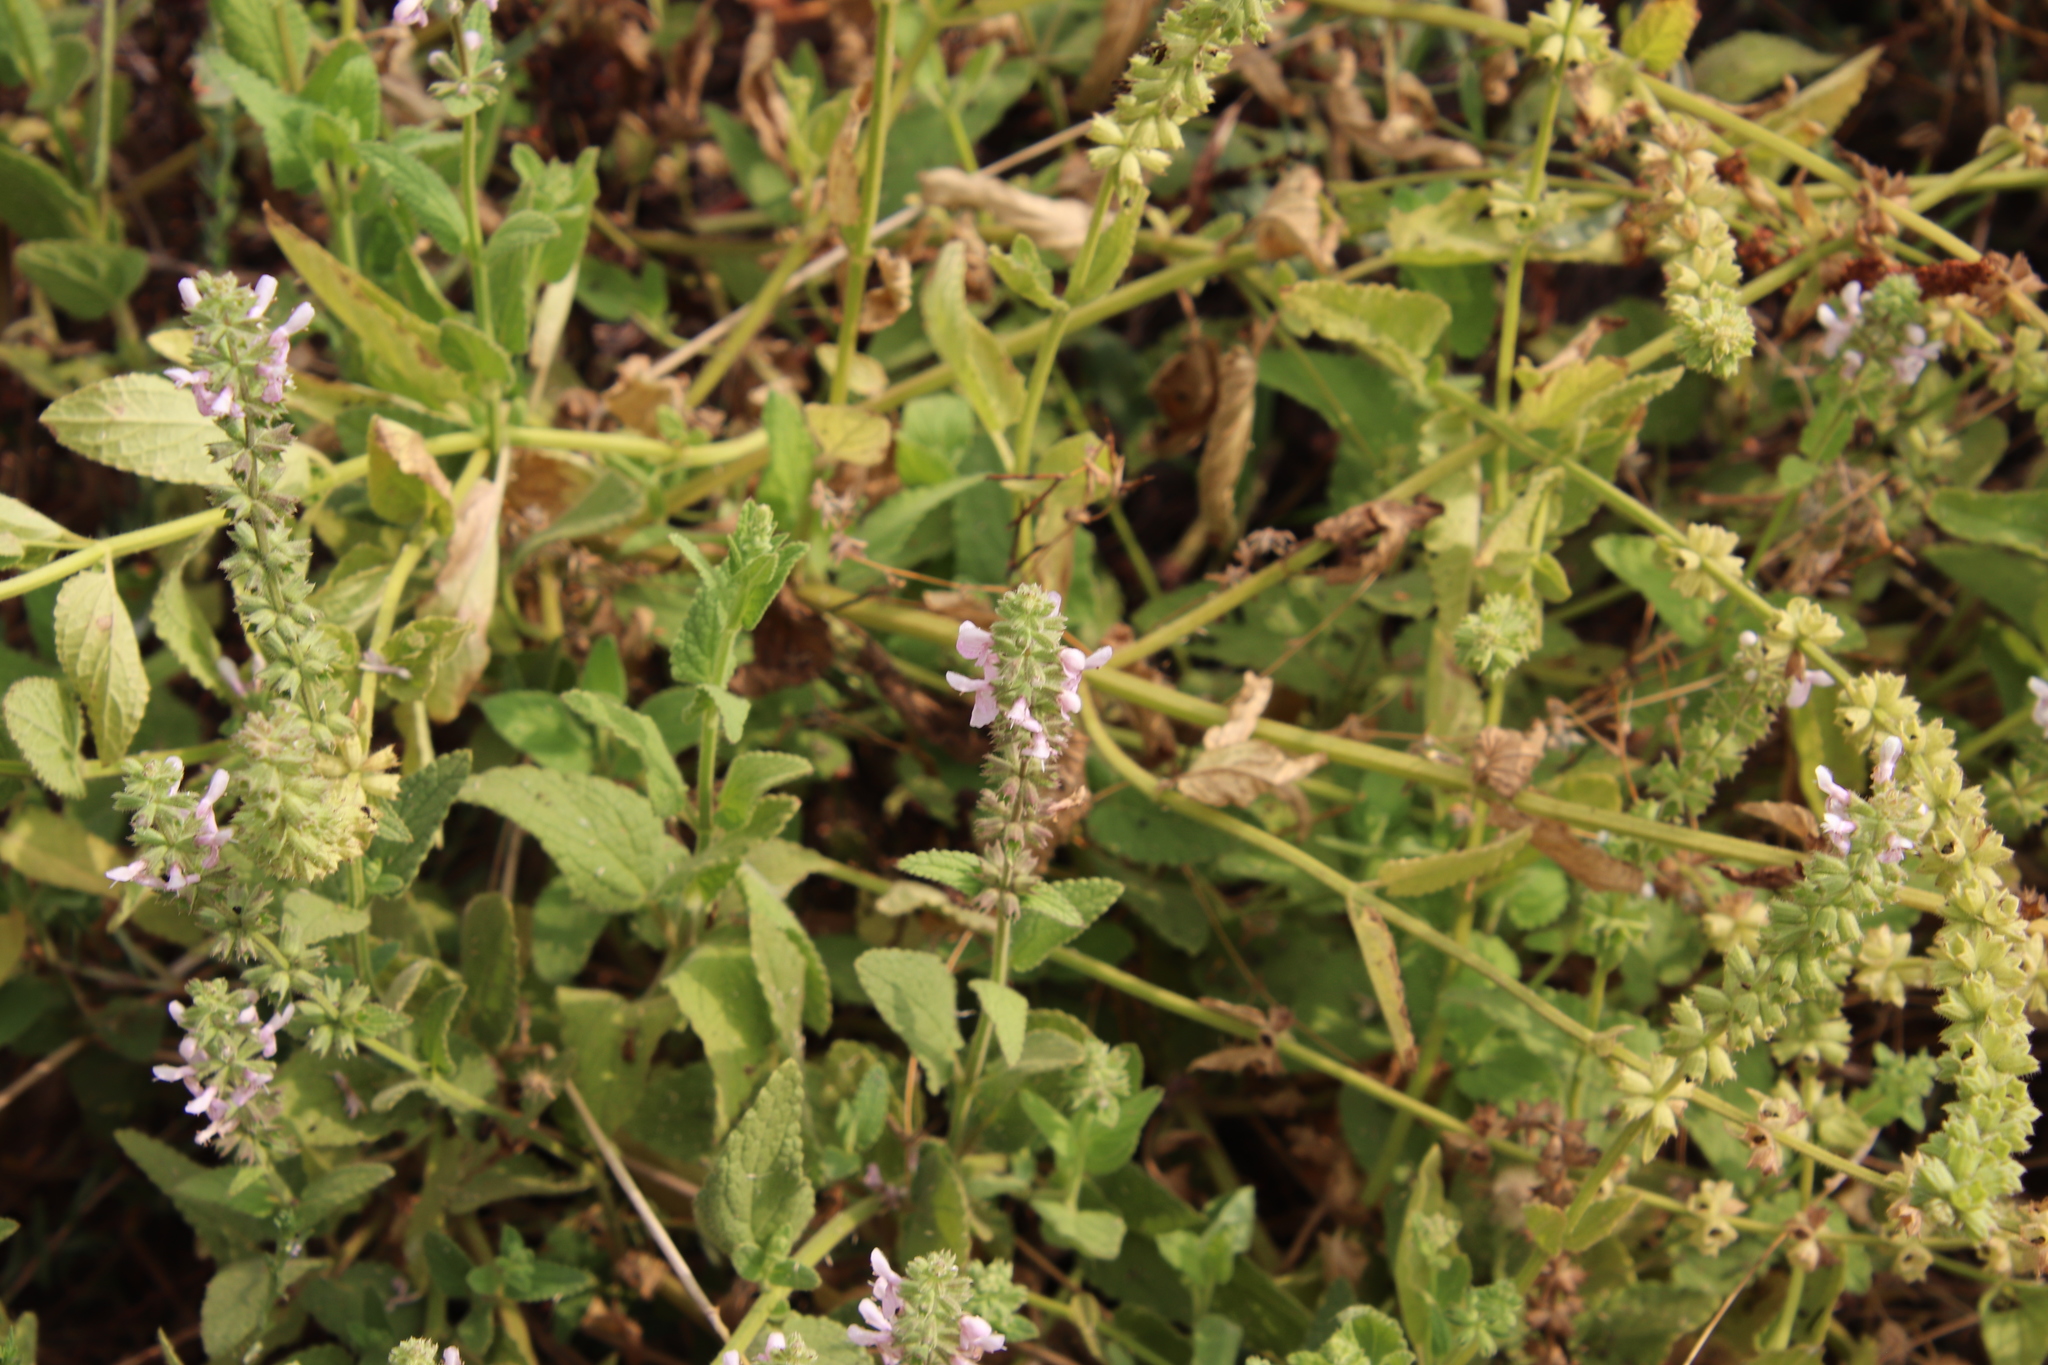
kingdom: Plantae
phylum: Tracheophyta
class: Magnoliopsida
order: Lamiales
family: Lamiaceae
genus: Stachys
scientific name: Stachys stebbinsii
